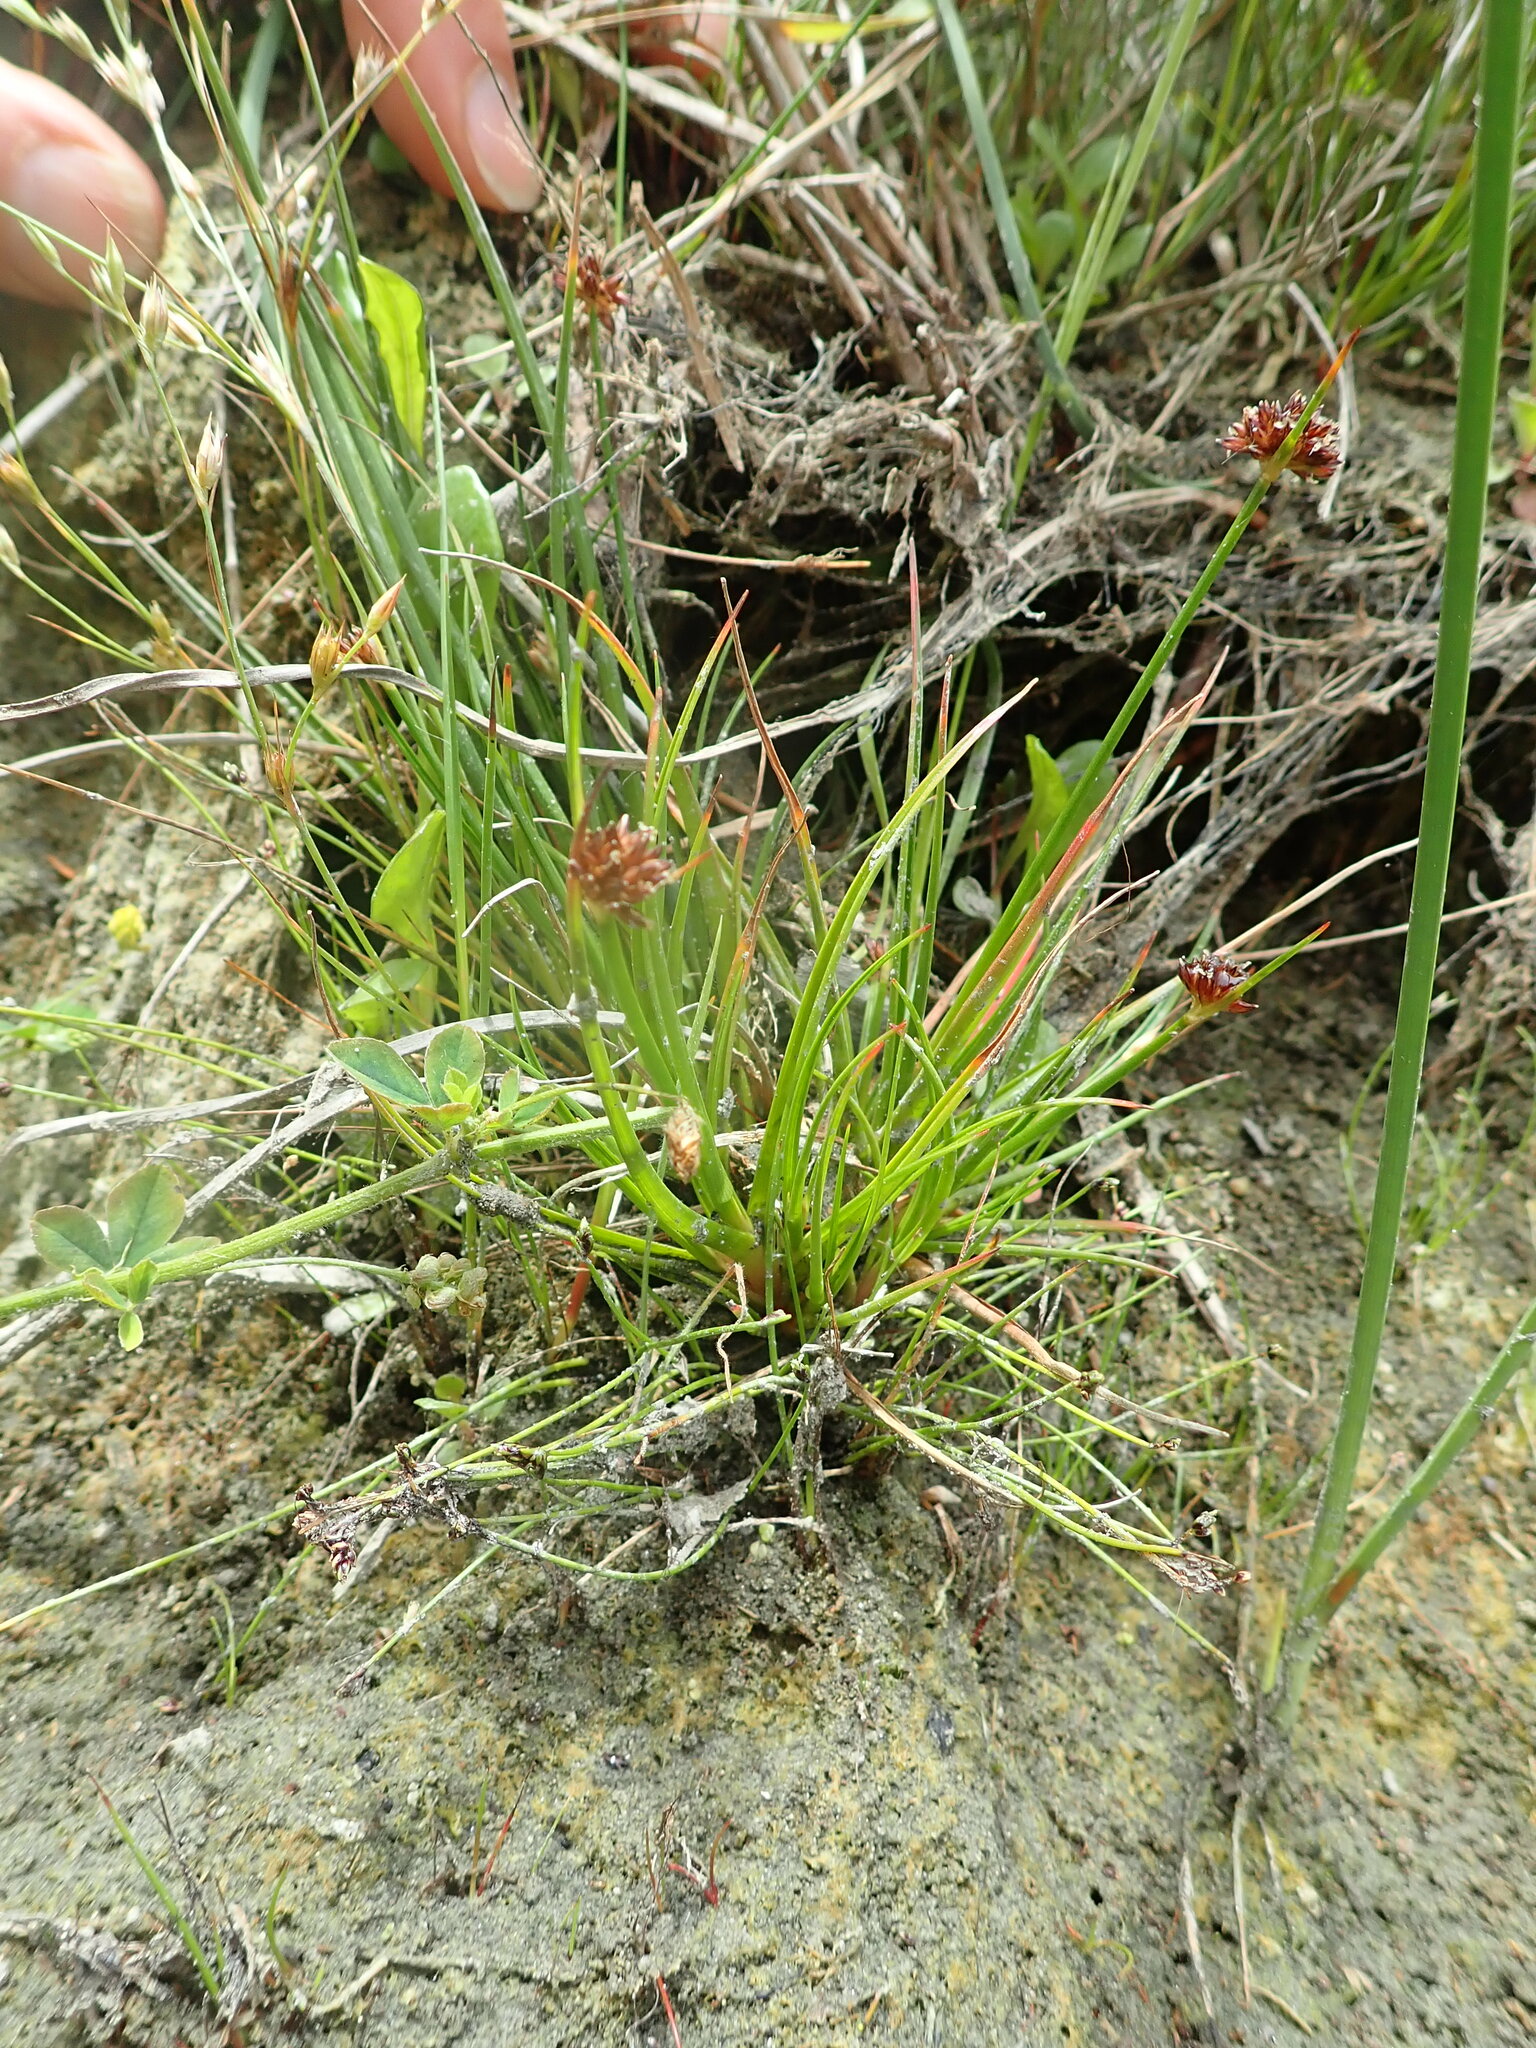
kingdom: Plantae
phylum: Tracheophyta
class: Liliopsida
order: Poales
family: Juncaceae
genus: Juncus
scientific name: Juncus caespiticius
